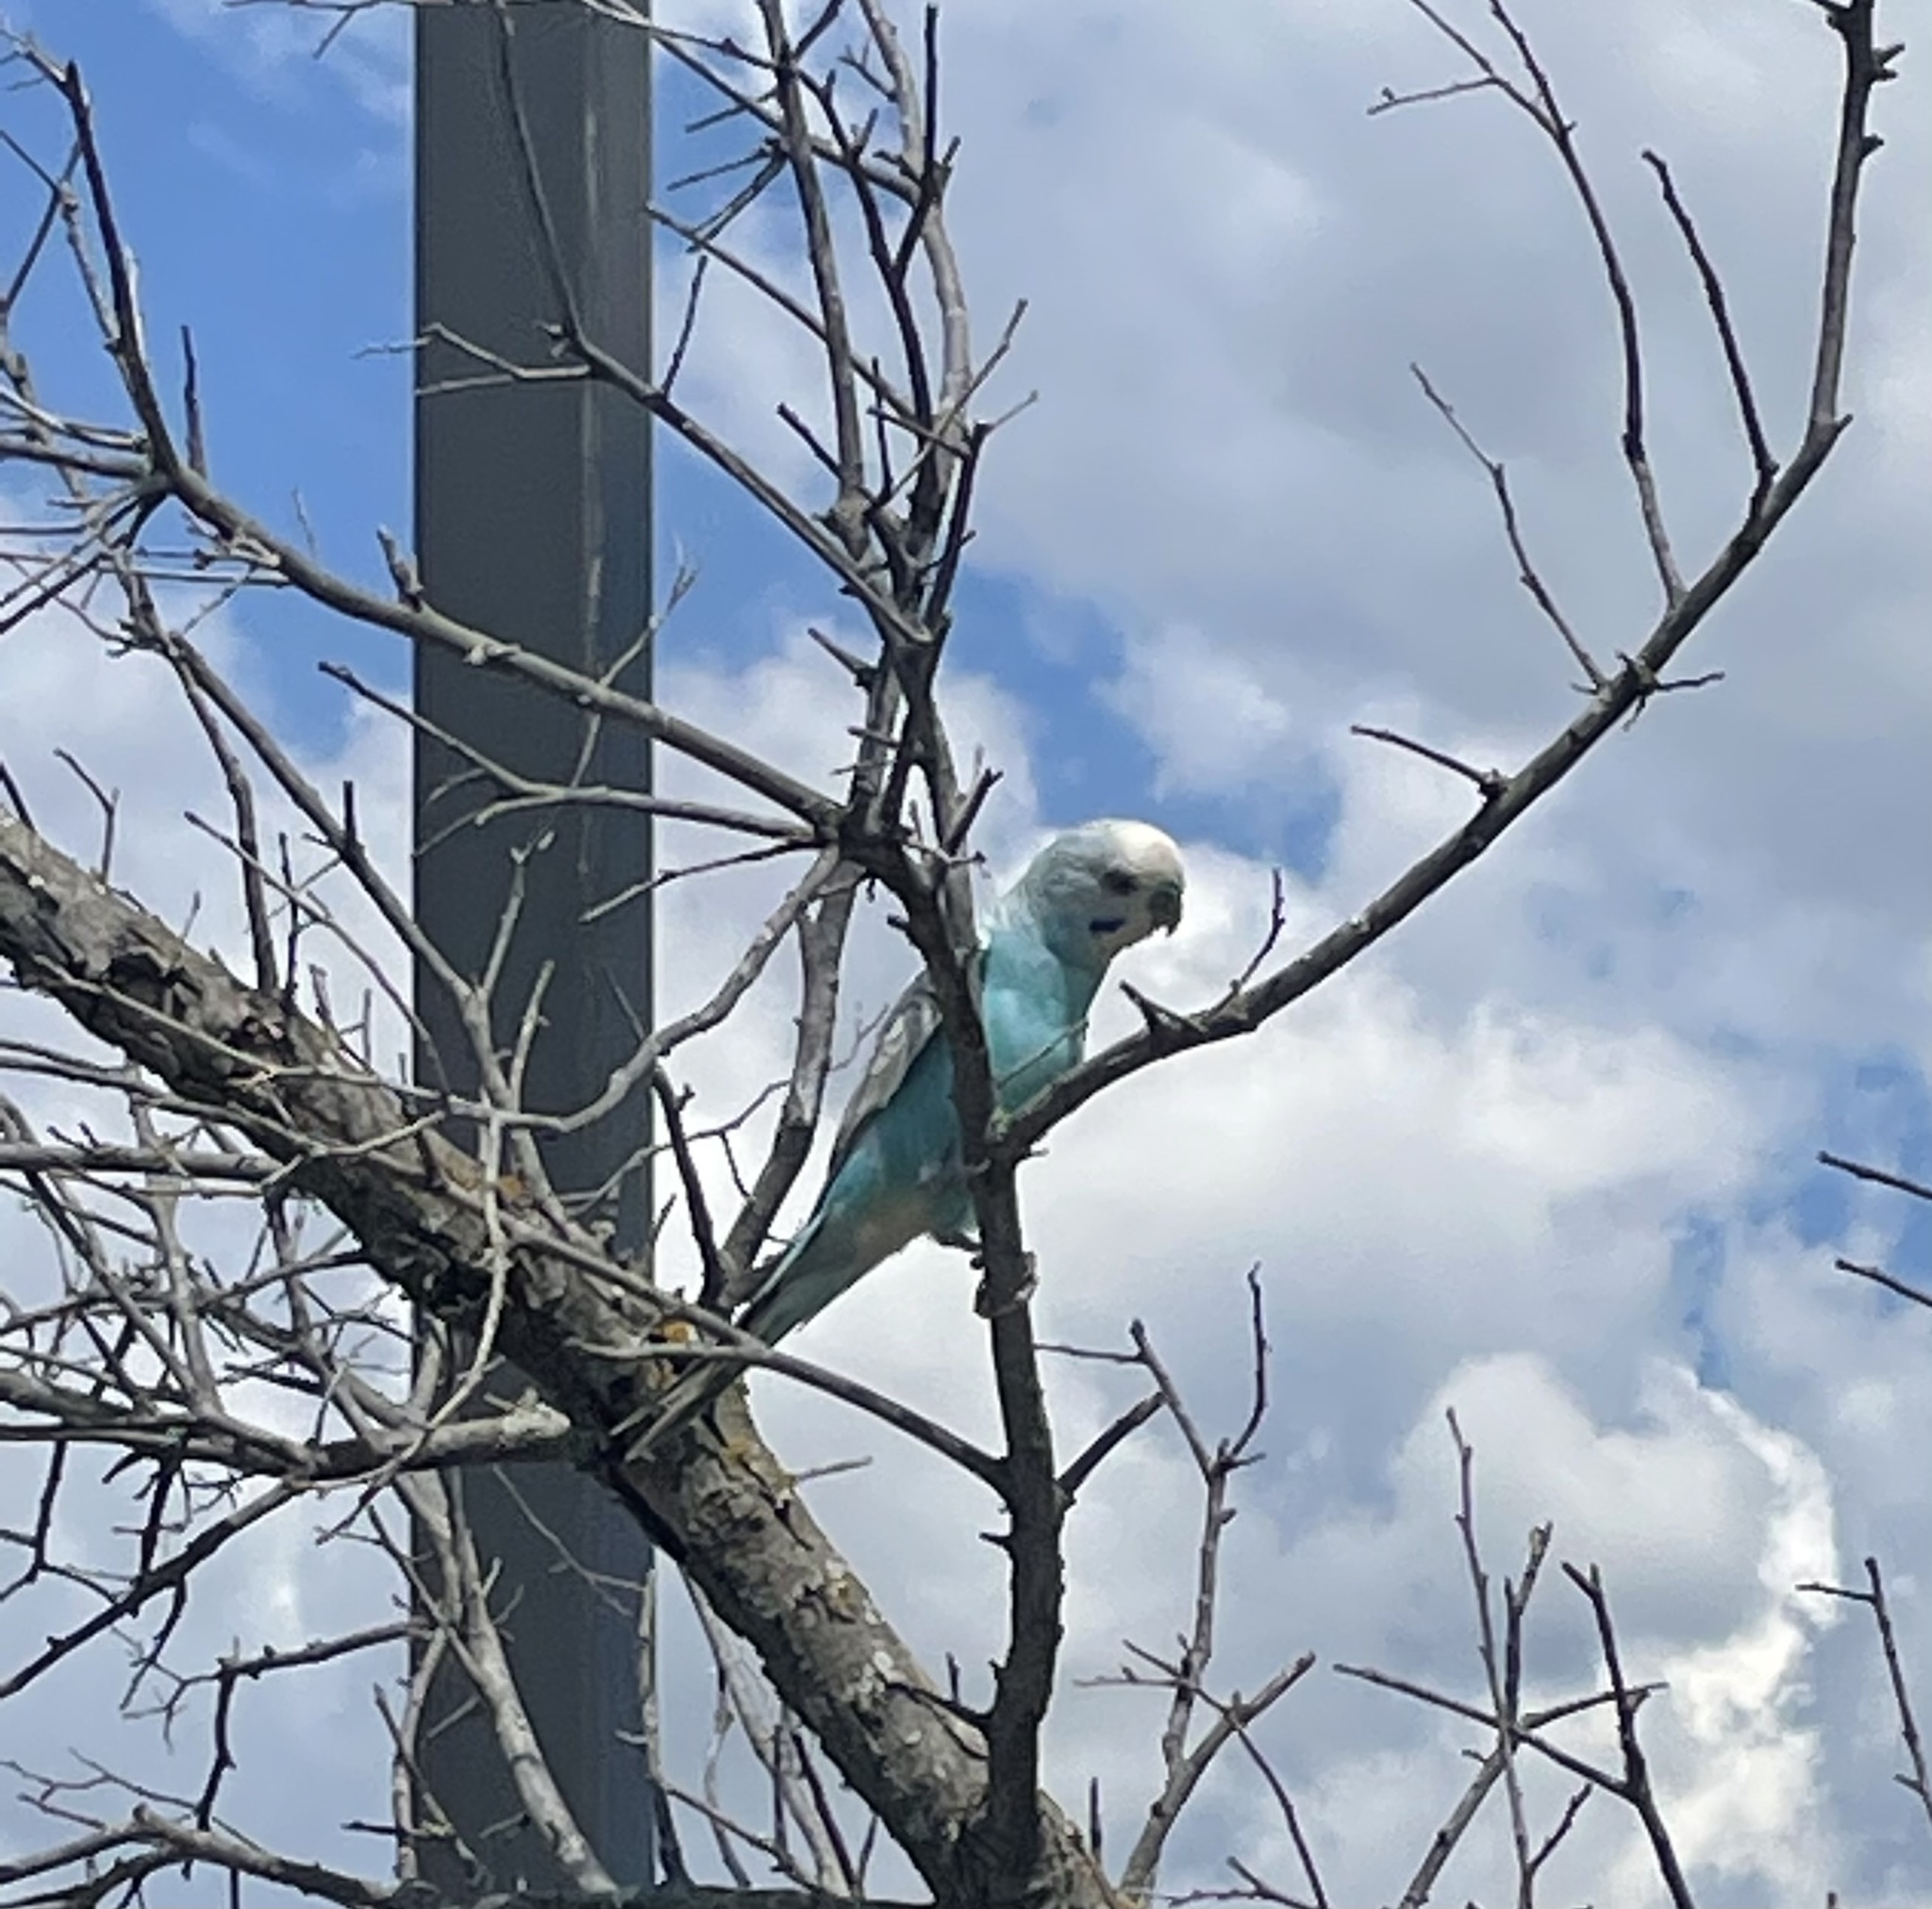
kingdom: Animalia
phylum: Chordata
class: Aves
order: Psittaciformes
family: Psittacidae
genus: Melopsittacus
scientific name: Melopsittacus undulatus
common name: Budgerigar
